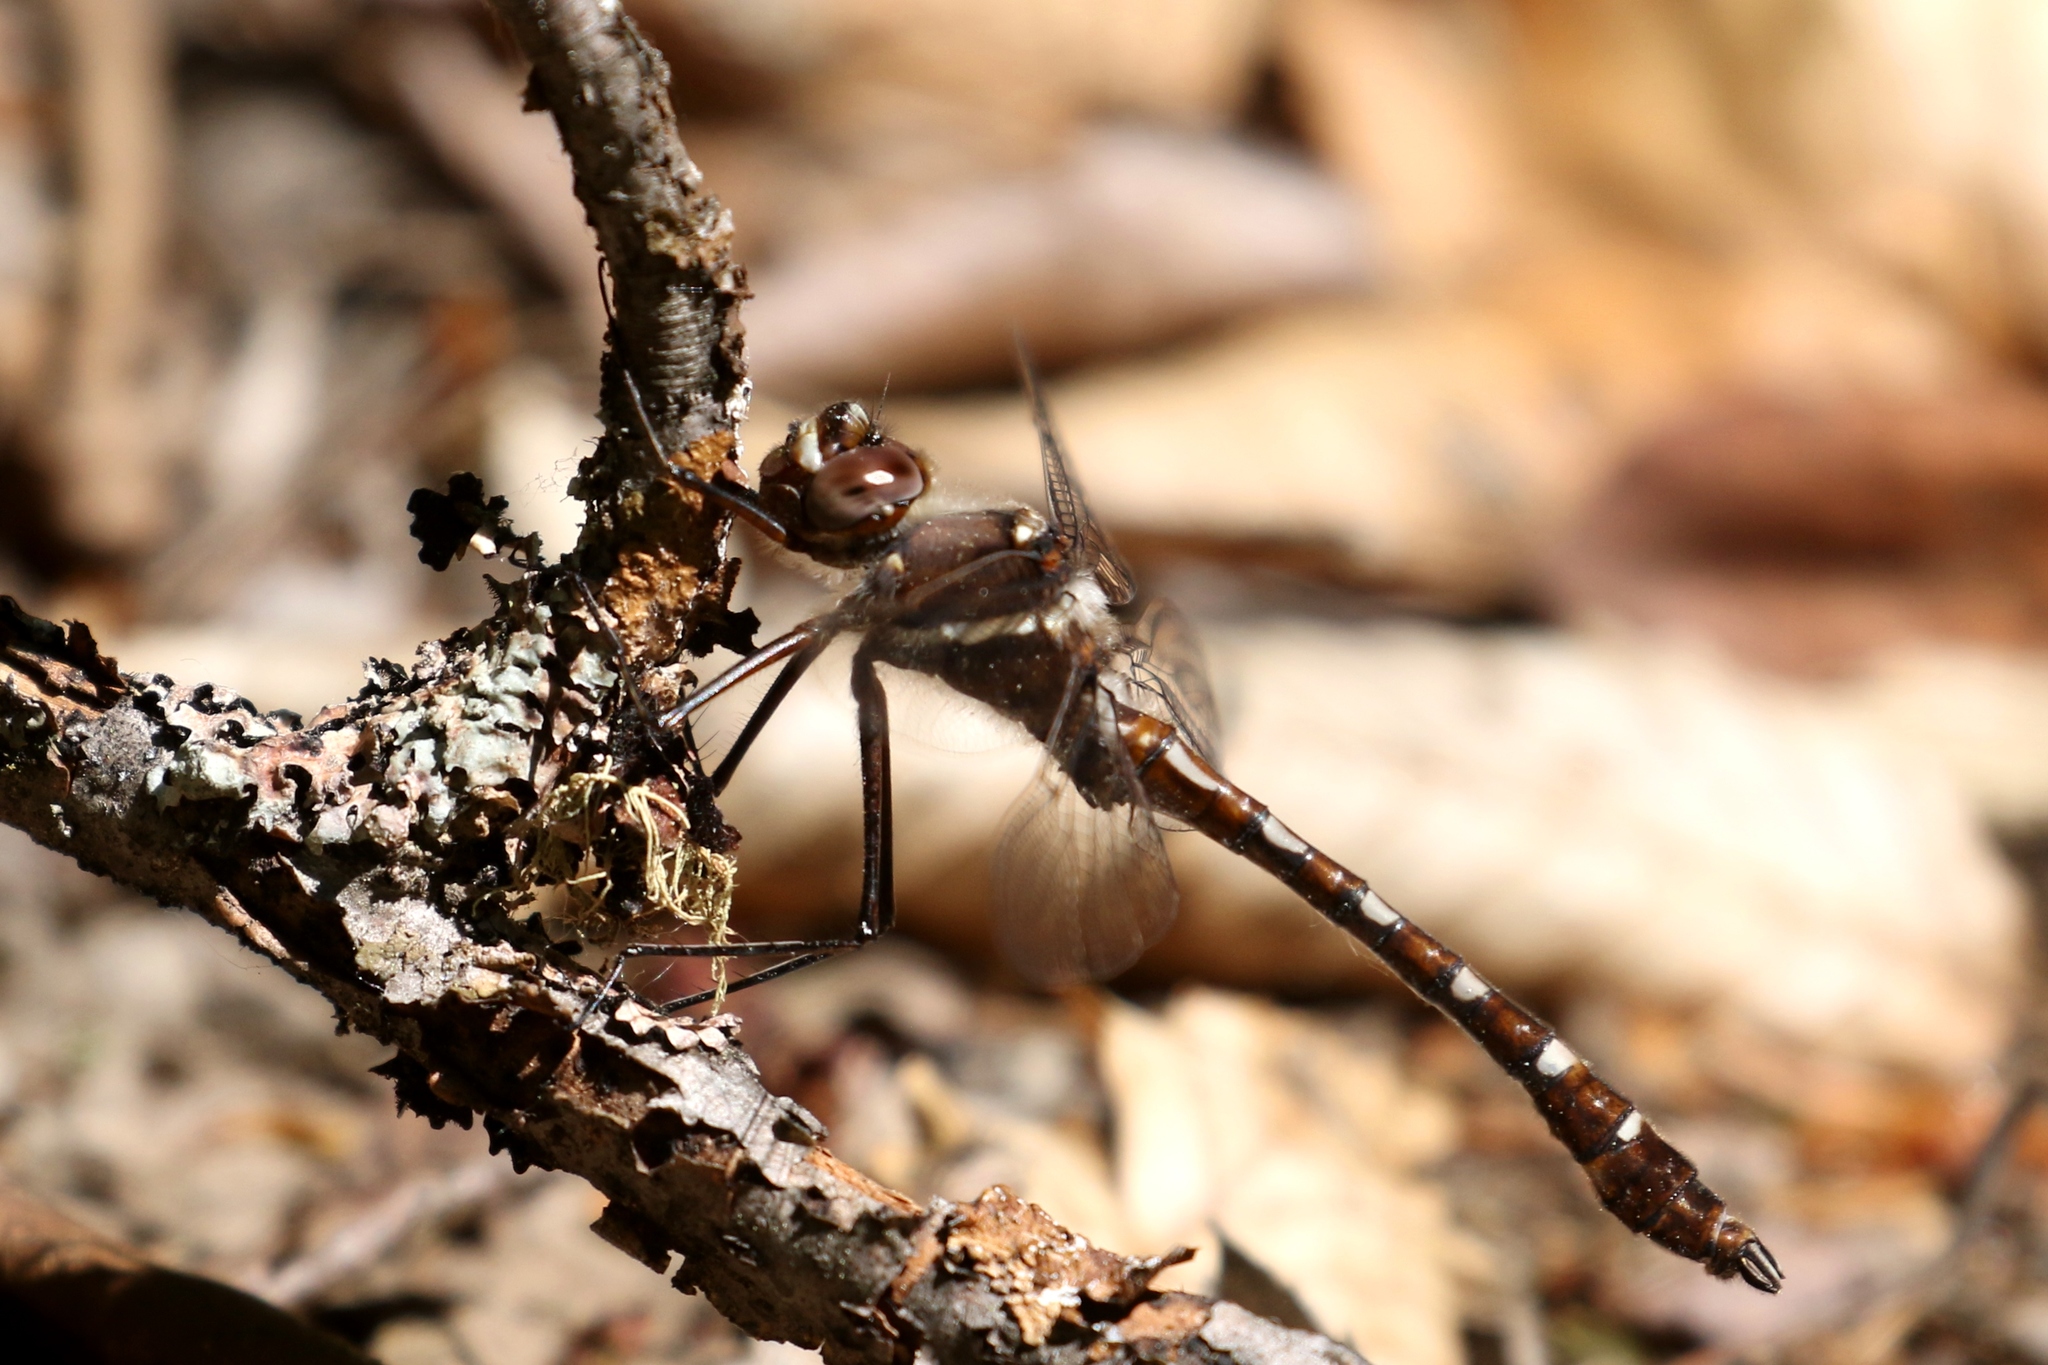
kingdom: Animalia
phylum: Arthropoda
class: Insecta
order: Odonata
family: Macromiidae
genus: Didymops
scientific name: Didymops transversa
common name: Stream cruiser
